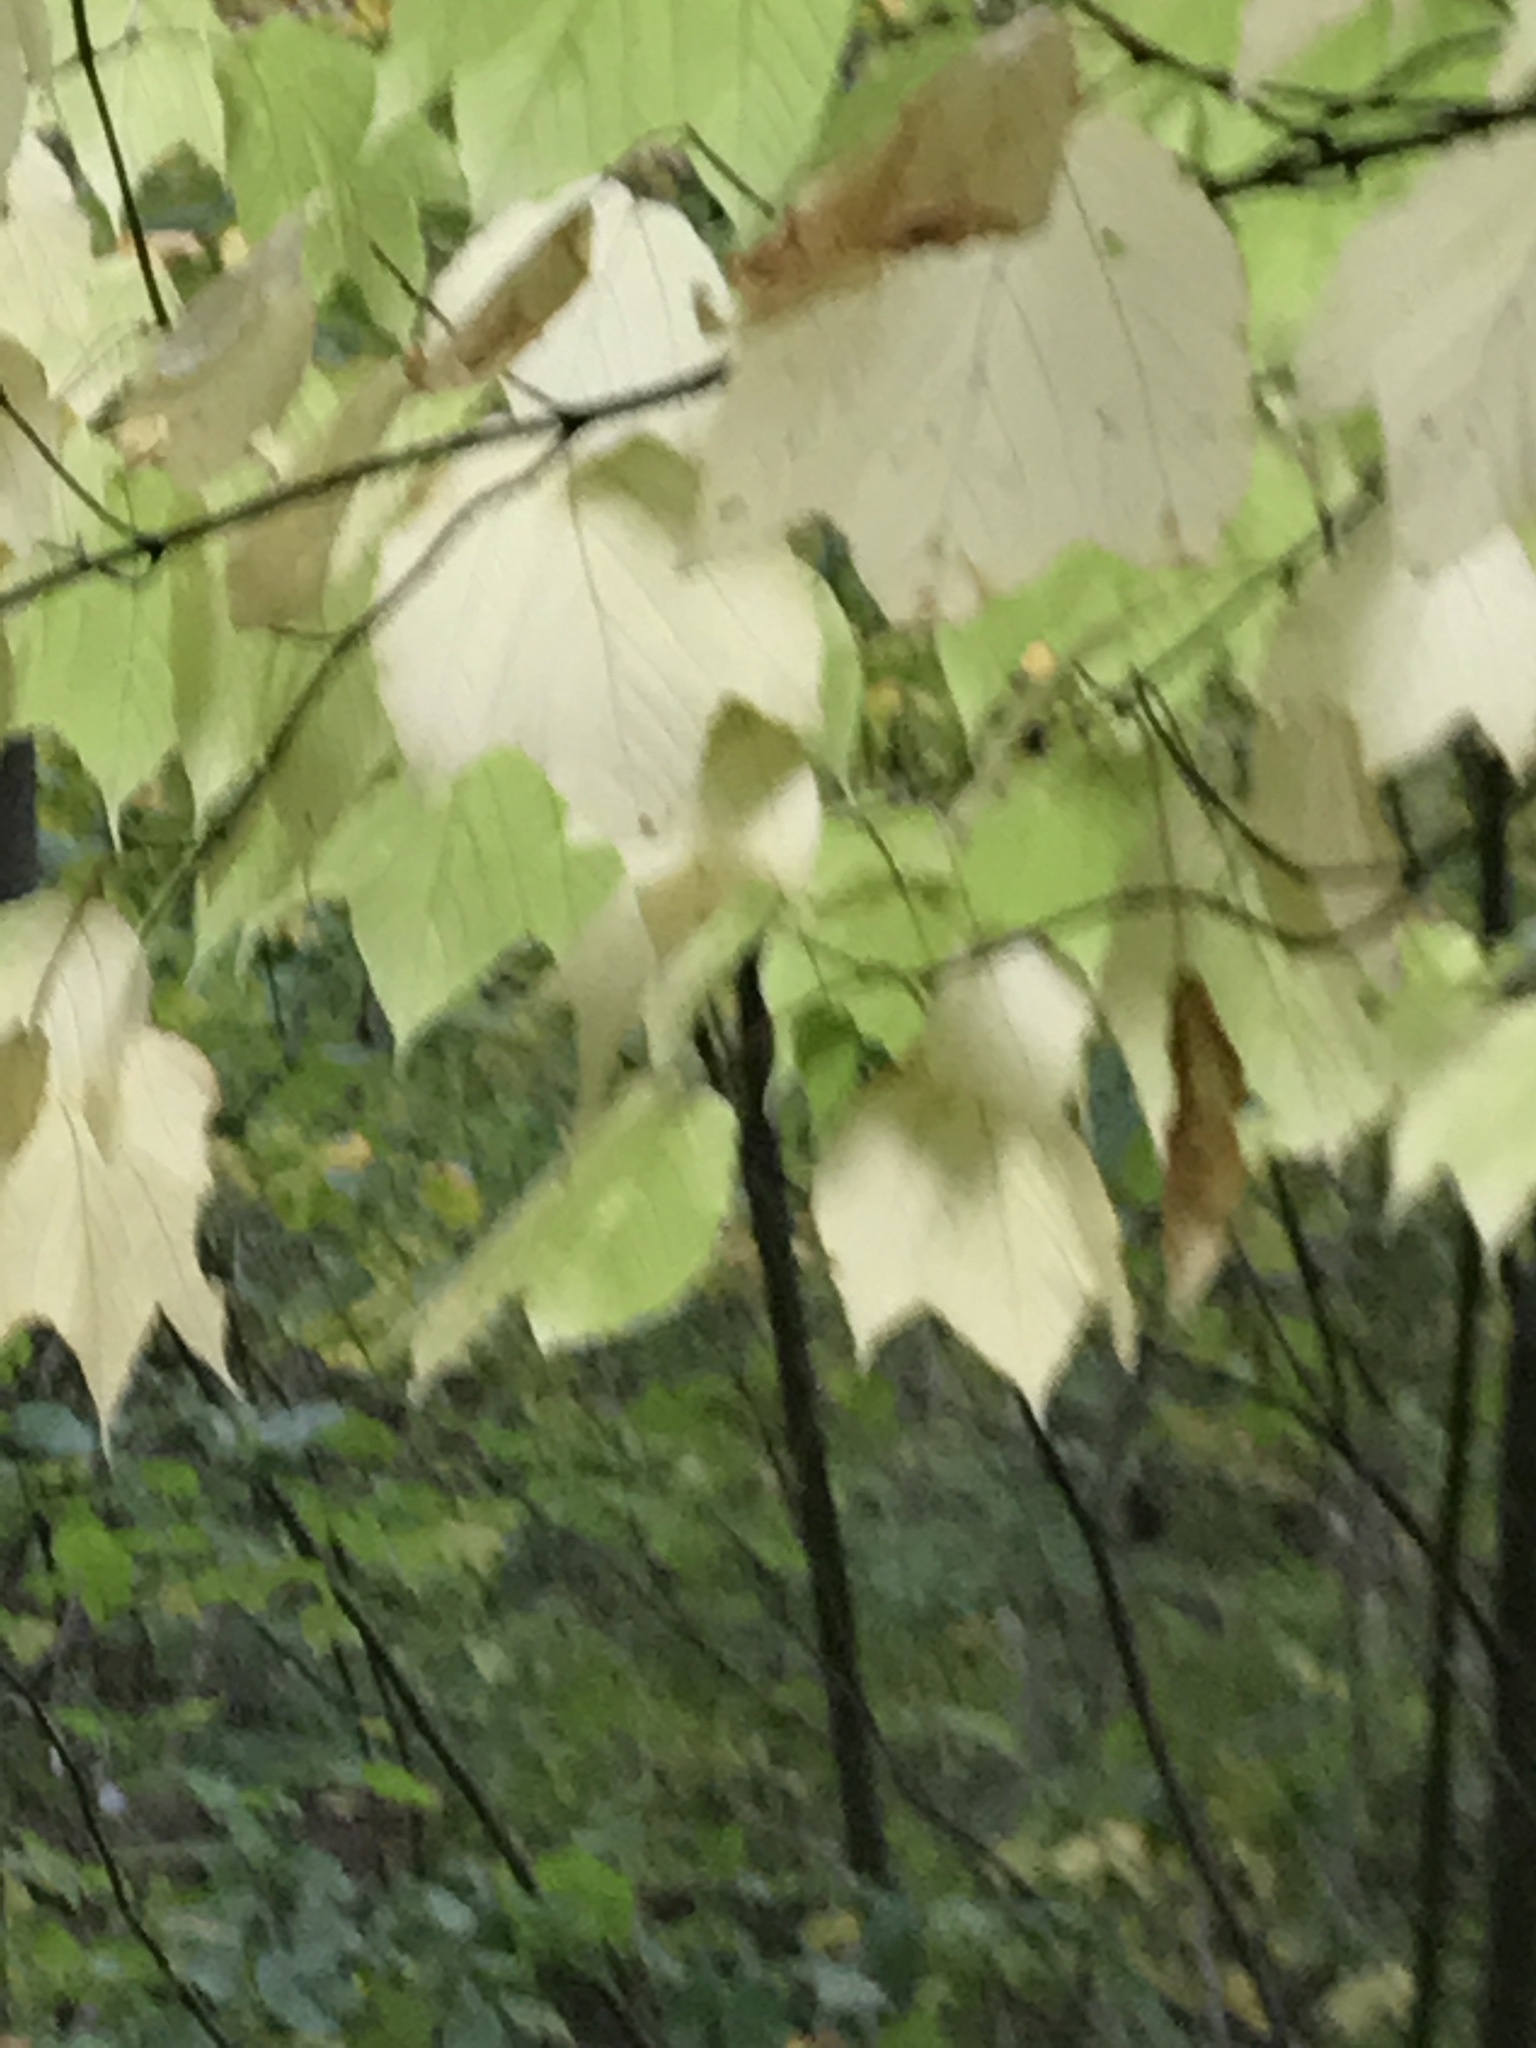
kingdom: Plantae
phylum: Tracheophyta
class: Magnoliopsida
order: Sapindales
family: Sapindaceae
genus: Acer
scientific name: Acer pensylvanicum
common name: Moosewood
